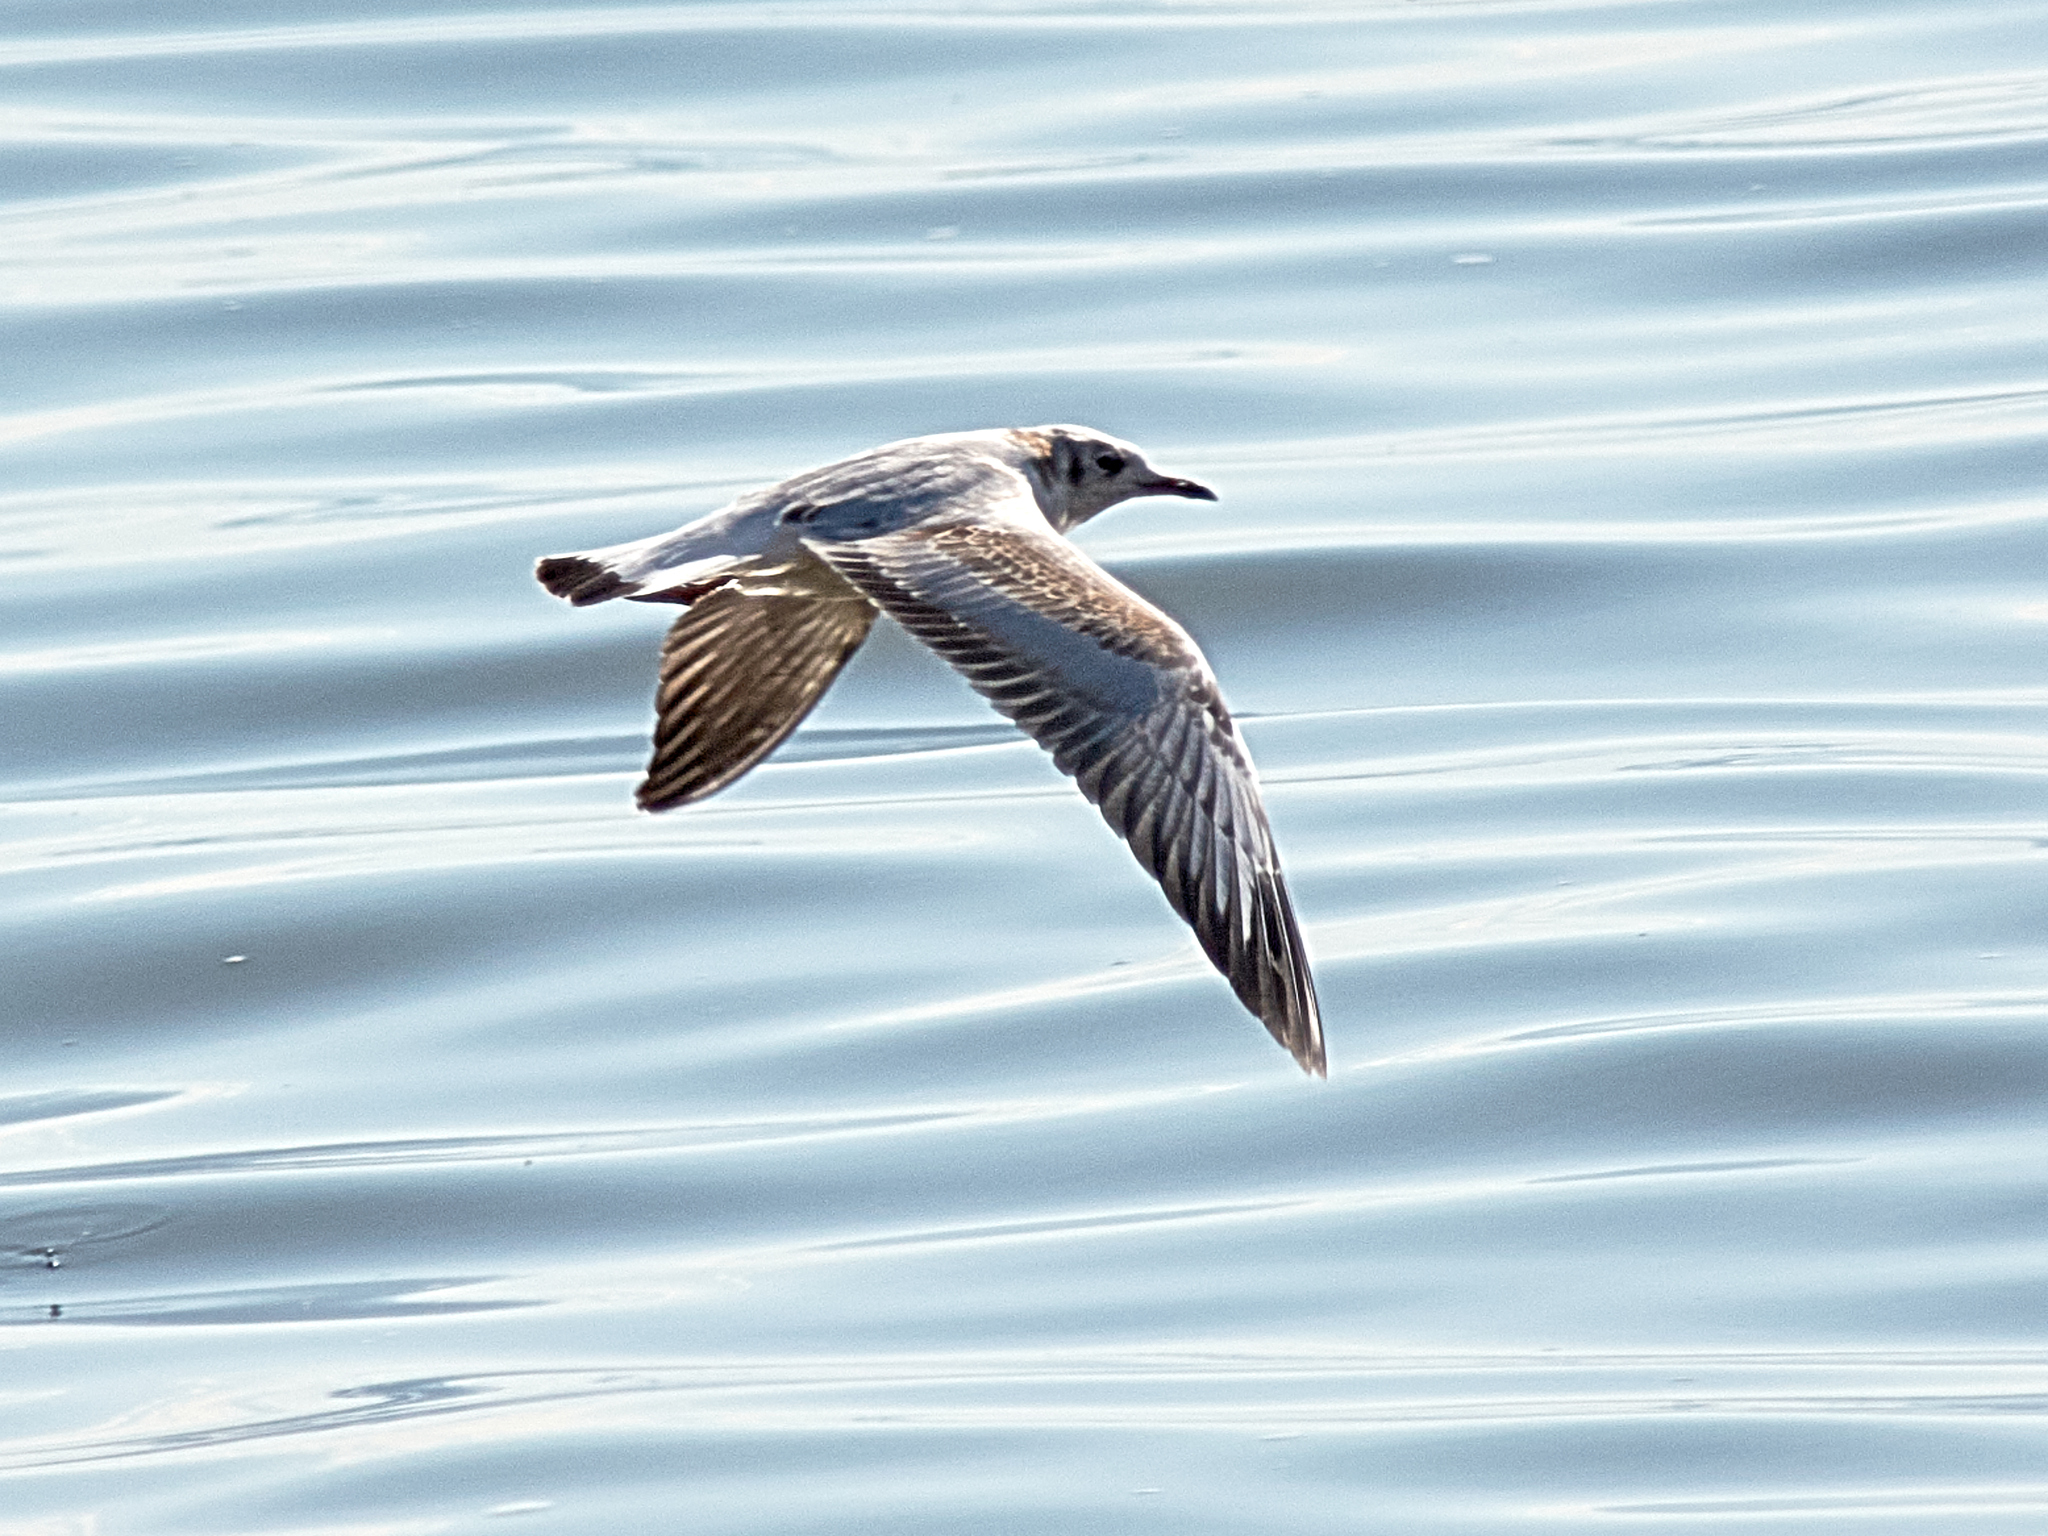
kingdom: Animalia
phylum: Chordata
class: Aves
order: Charadriiformes
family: Laridae
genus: Chroicocephalus
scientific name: Chroicocephalus ridibundus
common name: Black-headed gull
